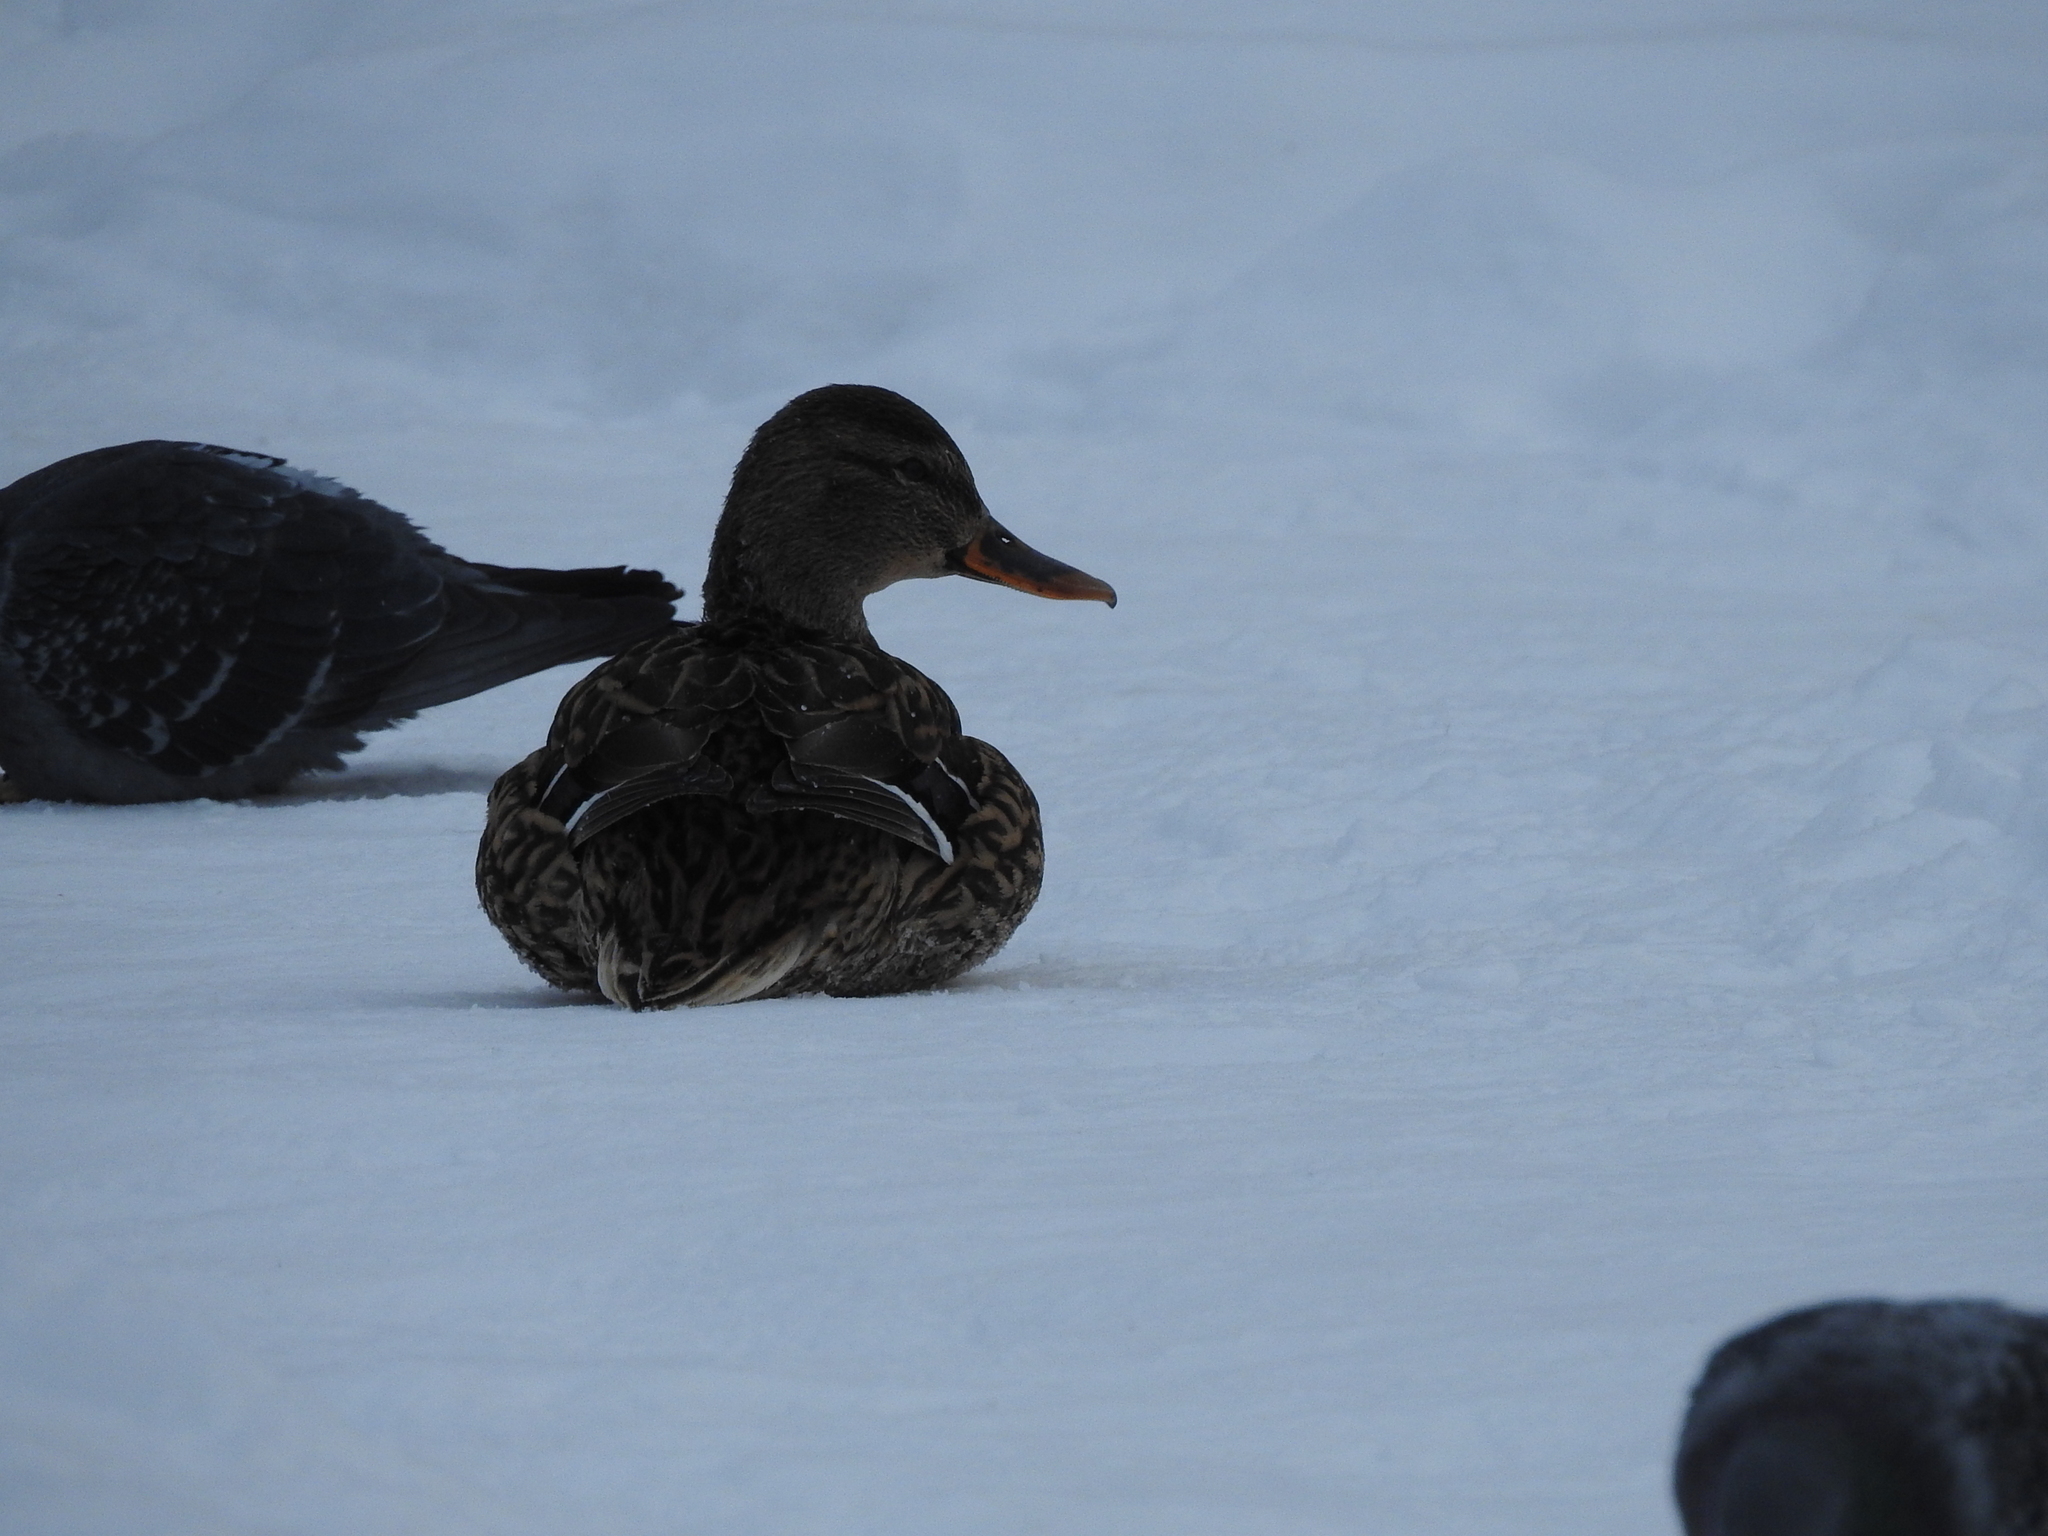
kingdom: Animalia
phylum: Chordata
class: Aves
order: Anseriformes
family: Anatidae
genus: Anas
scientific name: Anas platyrhynchos
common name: Mallard
